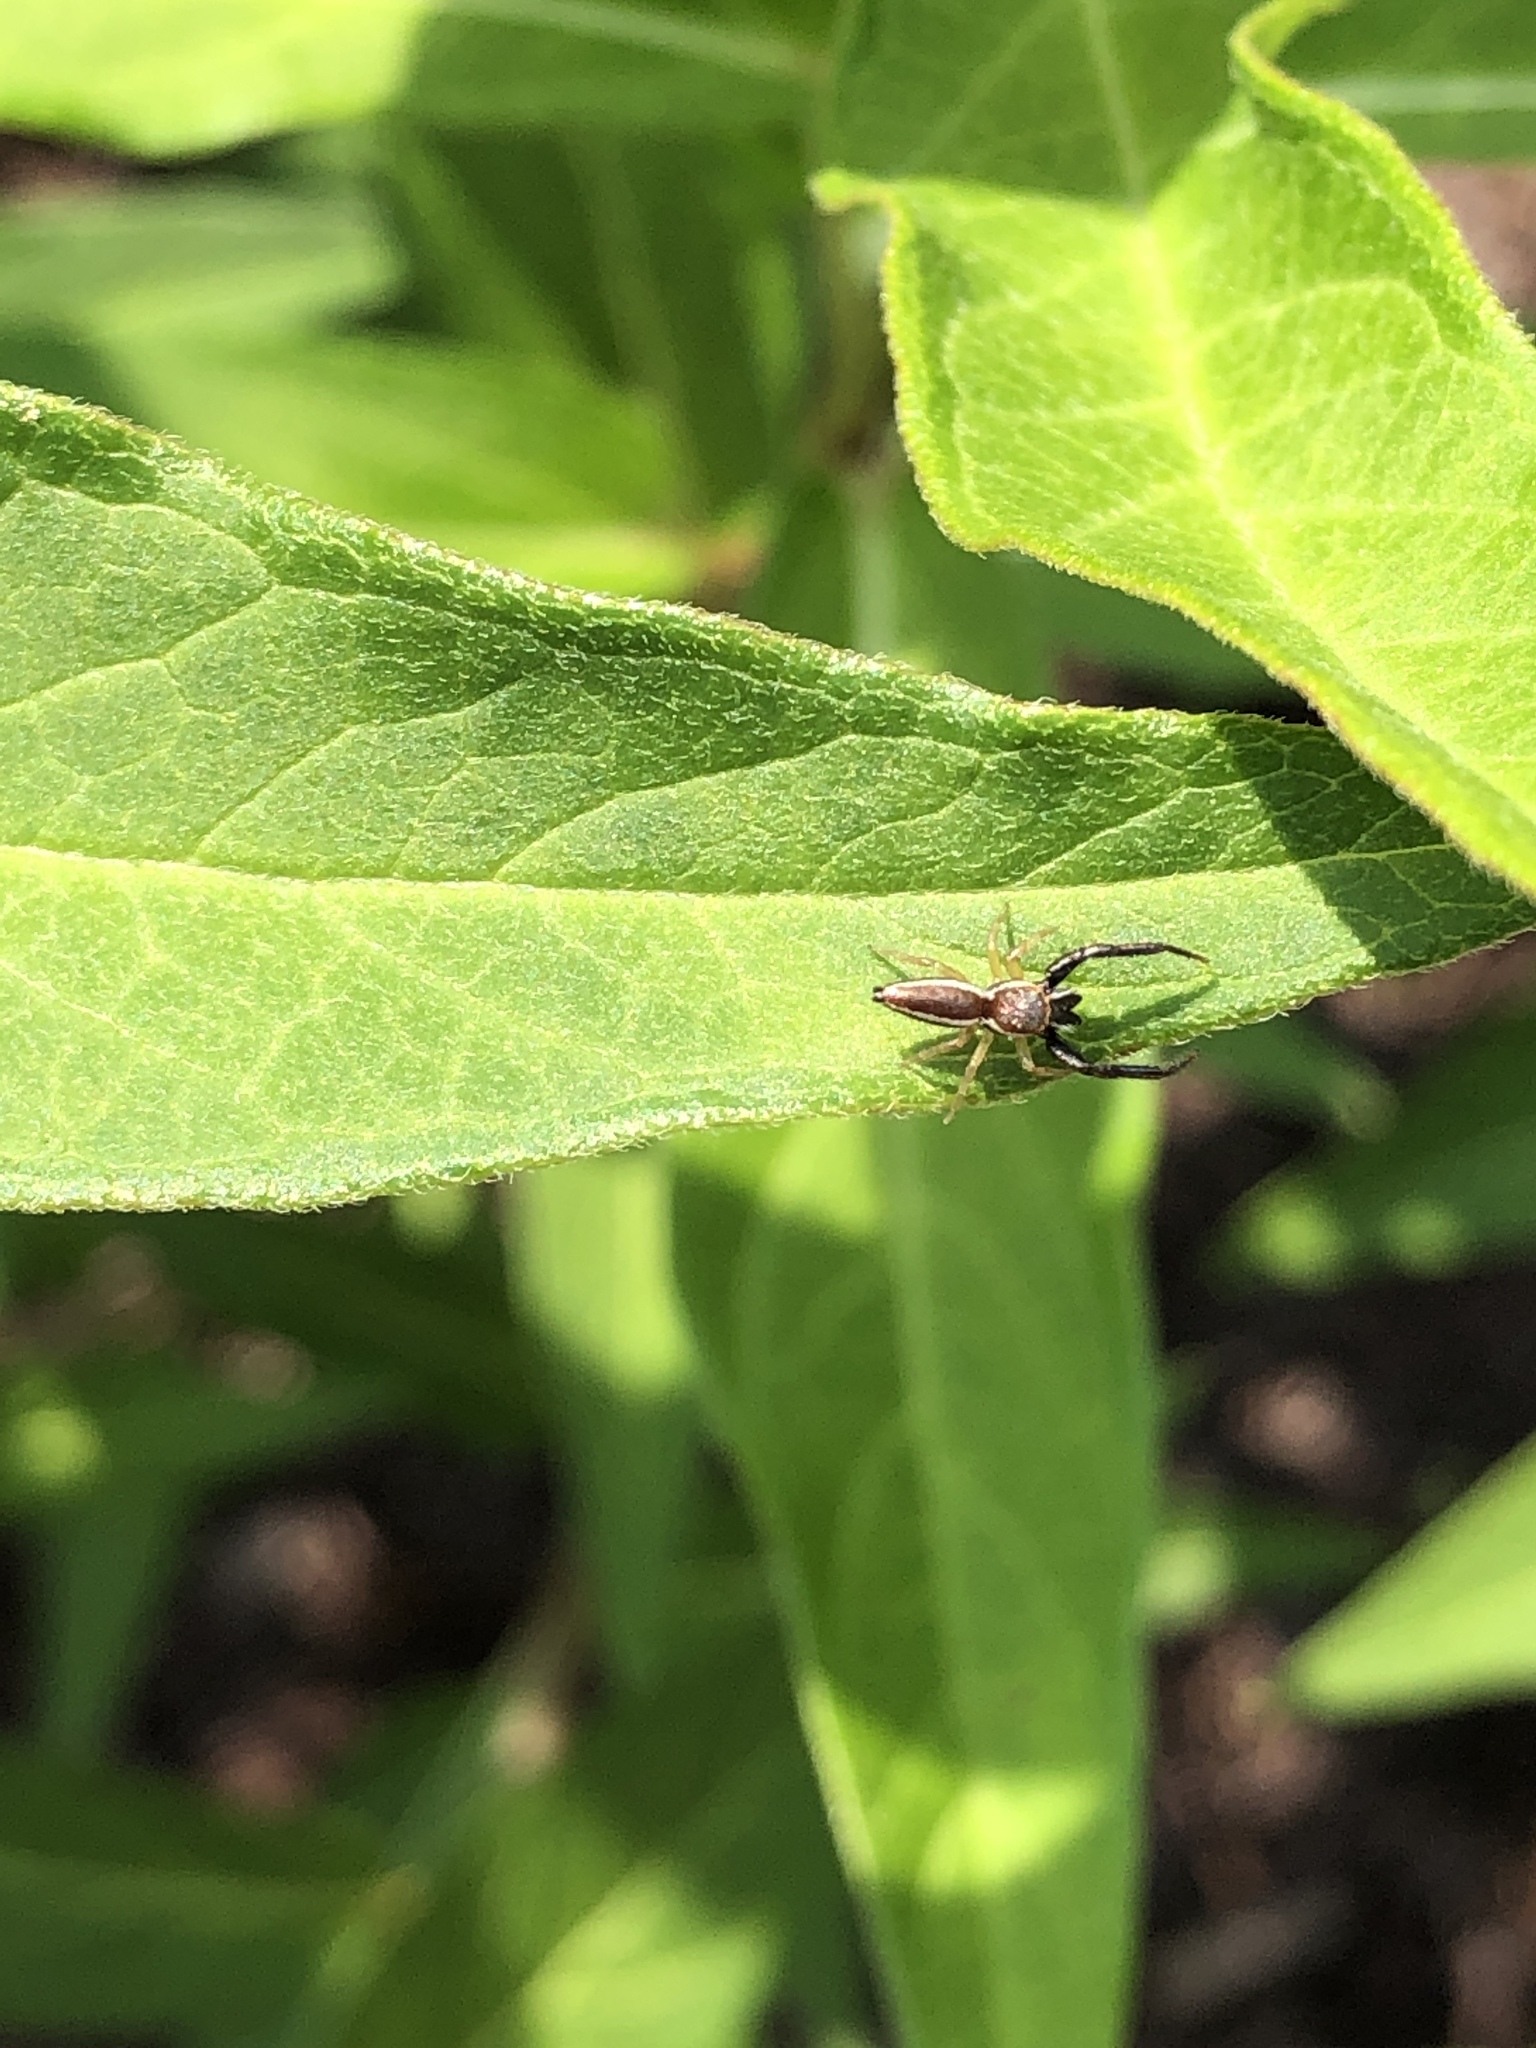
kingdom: Animalia
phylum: Arthropoda
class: Arachnida
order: Araneae
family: Salticidae
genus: Hentzia
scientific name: Hentzia palmarum
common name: Common hentz jumping spider
